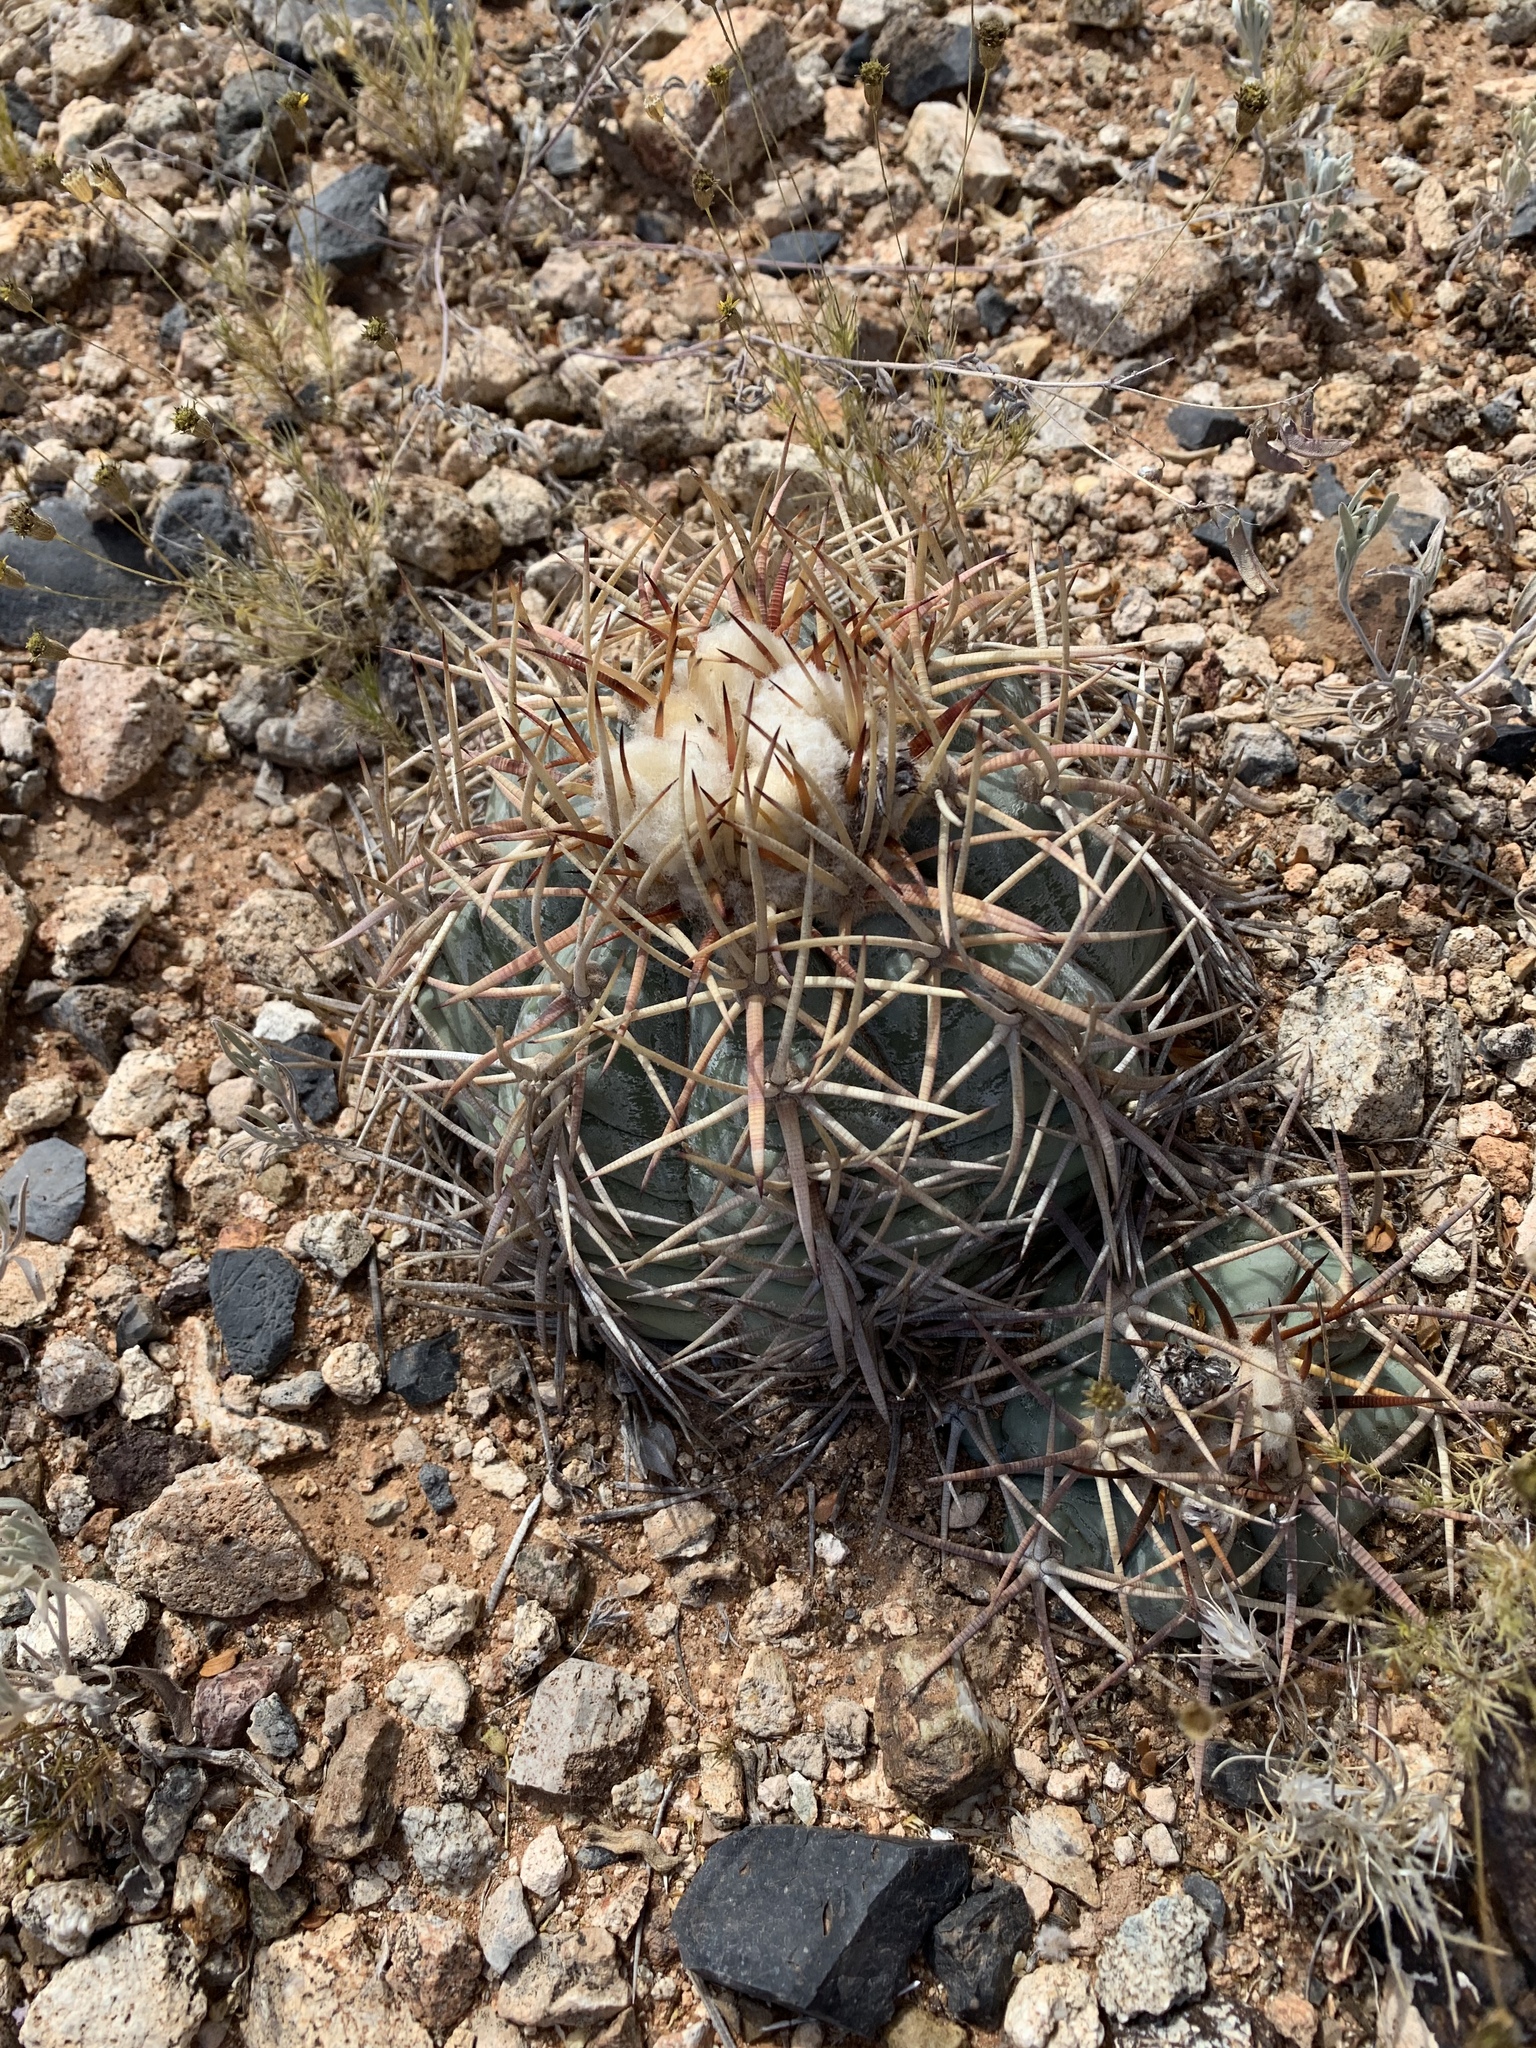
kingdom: Plantae
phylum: Tracheophyta
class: Magnoliopsida
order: Caryophyllales
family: Cactaceae
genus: Echinocactus
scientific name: Echinocactus horizonthalonius
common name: Devilshead
